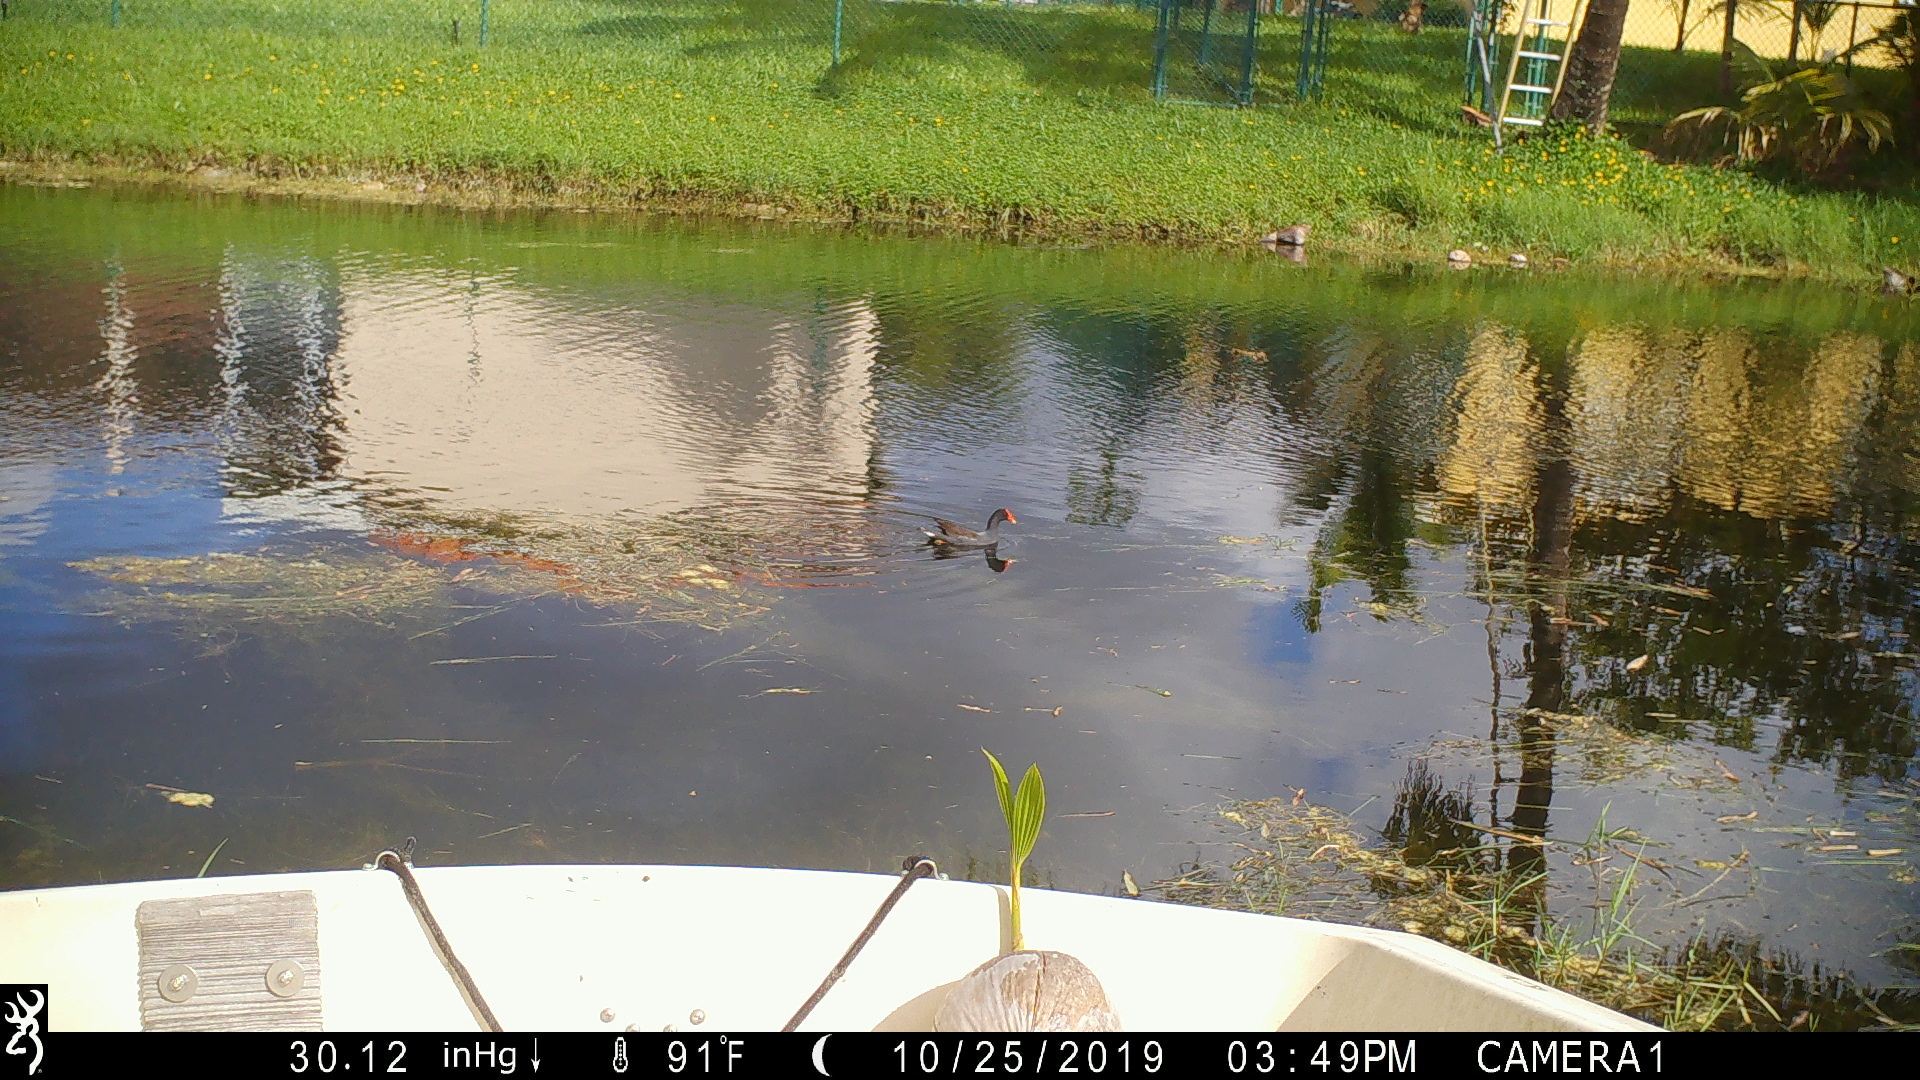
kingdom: Animalia
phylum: Chordata
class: Aves
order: Gruiformes
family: Rallidae
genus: Gallinula
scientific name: Gallinula chloropus
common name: Common moorhen
